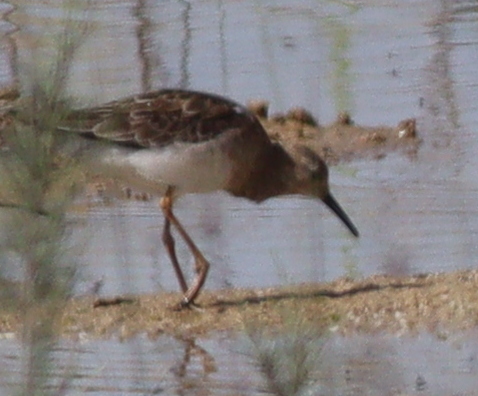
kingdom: Animalia
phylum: Chordata
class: Aves
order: Charadriiformes
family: Scolopacidae
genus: Calidris
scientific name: Calidris pugnax
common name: Ruff
